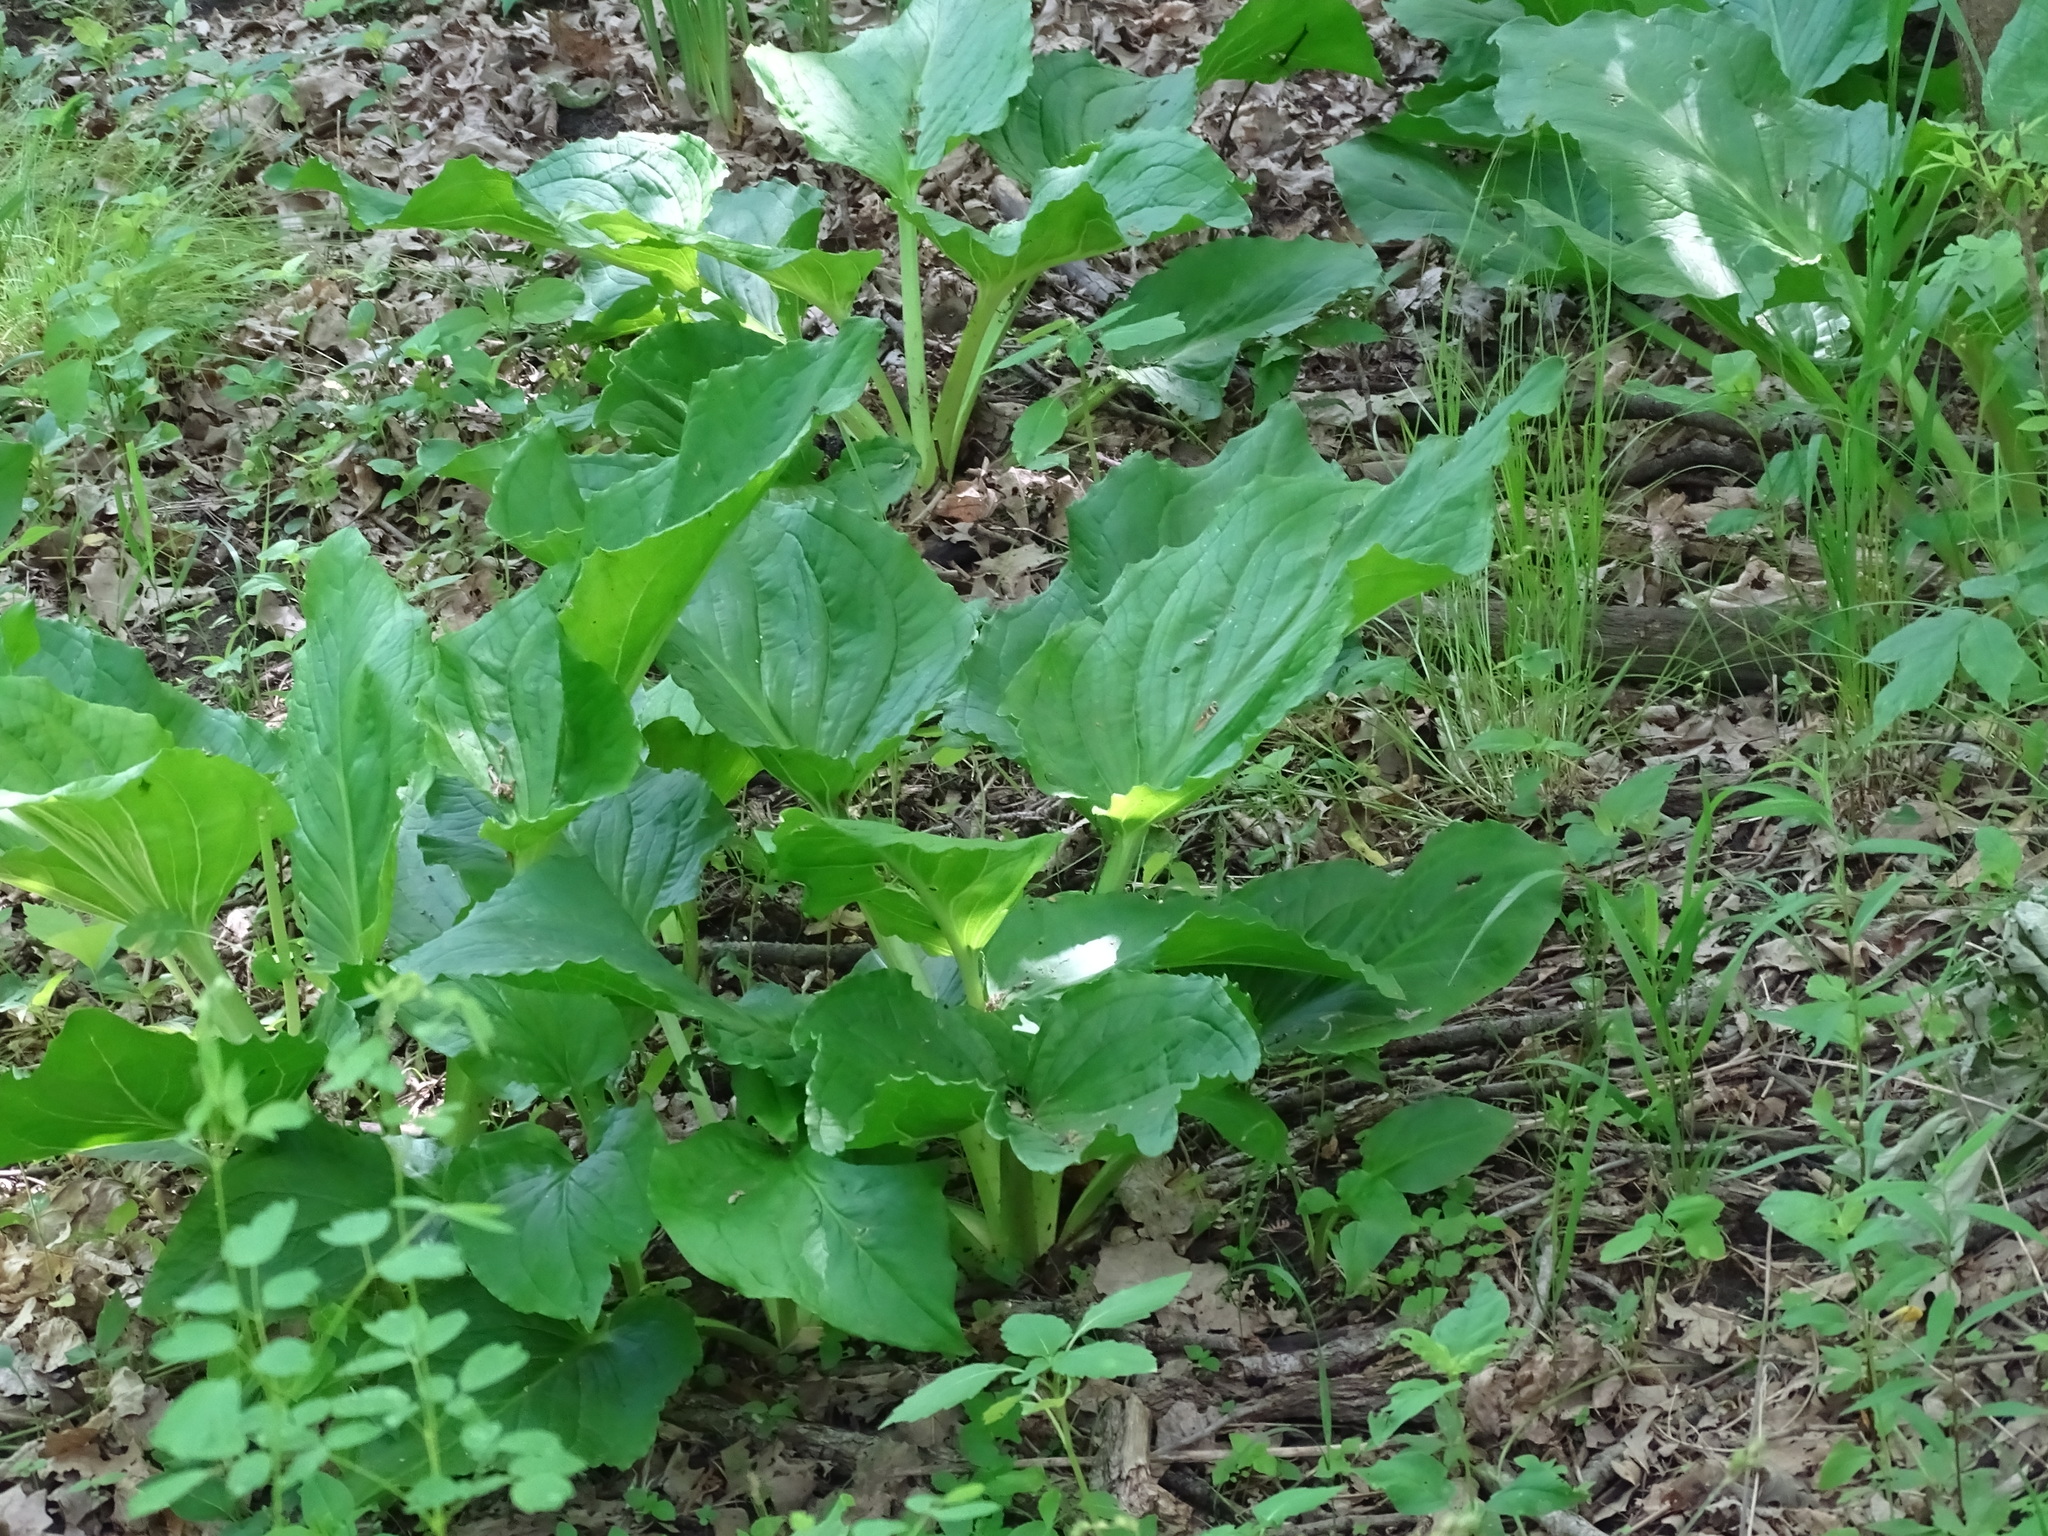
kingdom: Plantae
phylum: Tracheophyta
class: Liliopsida
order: Alismatales
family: Araceae
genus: Symplocarpus
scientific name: Symplocarpus foetidus
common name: Eastern skunk cabbage
